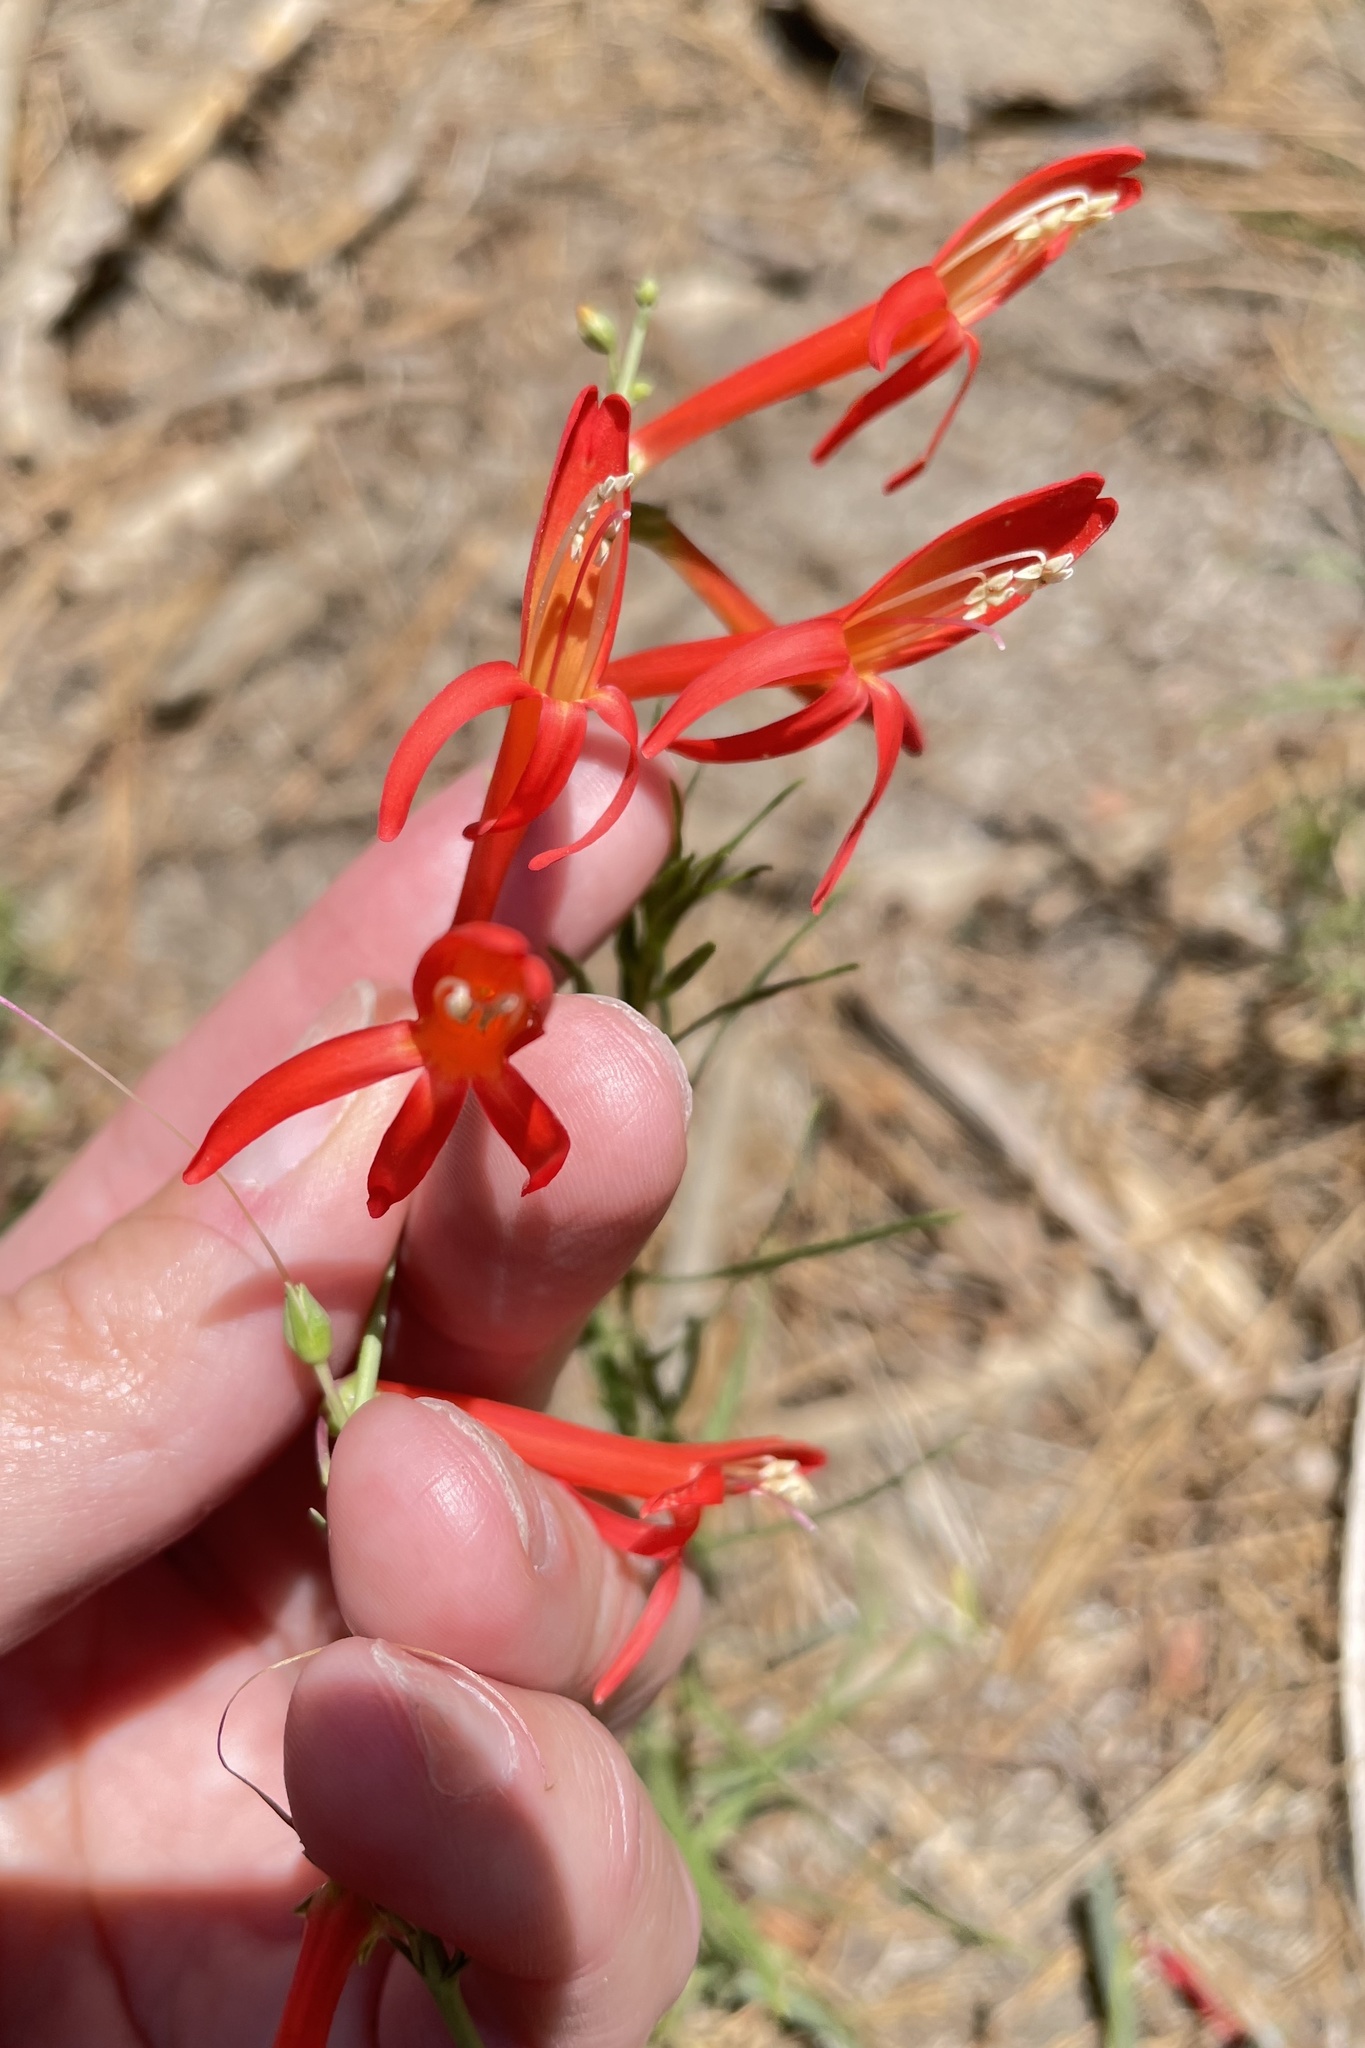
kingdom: Plantae
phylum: Tracheophyta
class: Magnoliopsida
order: Lamiales
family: Plantaginaceae
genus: Penstemon
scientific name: Penstemon labrosus
